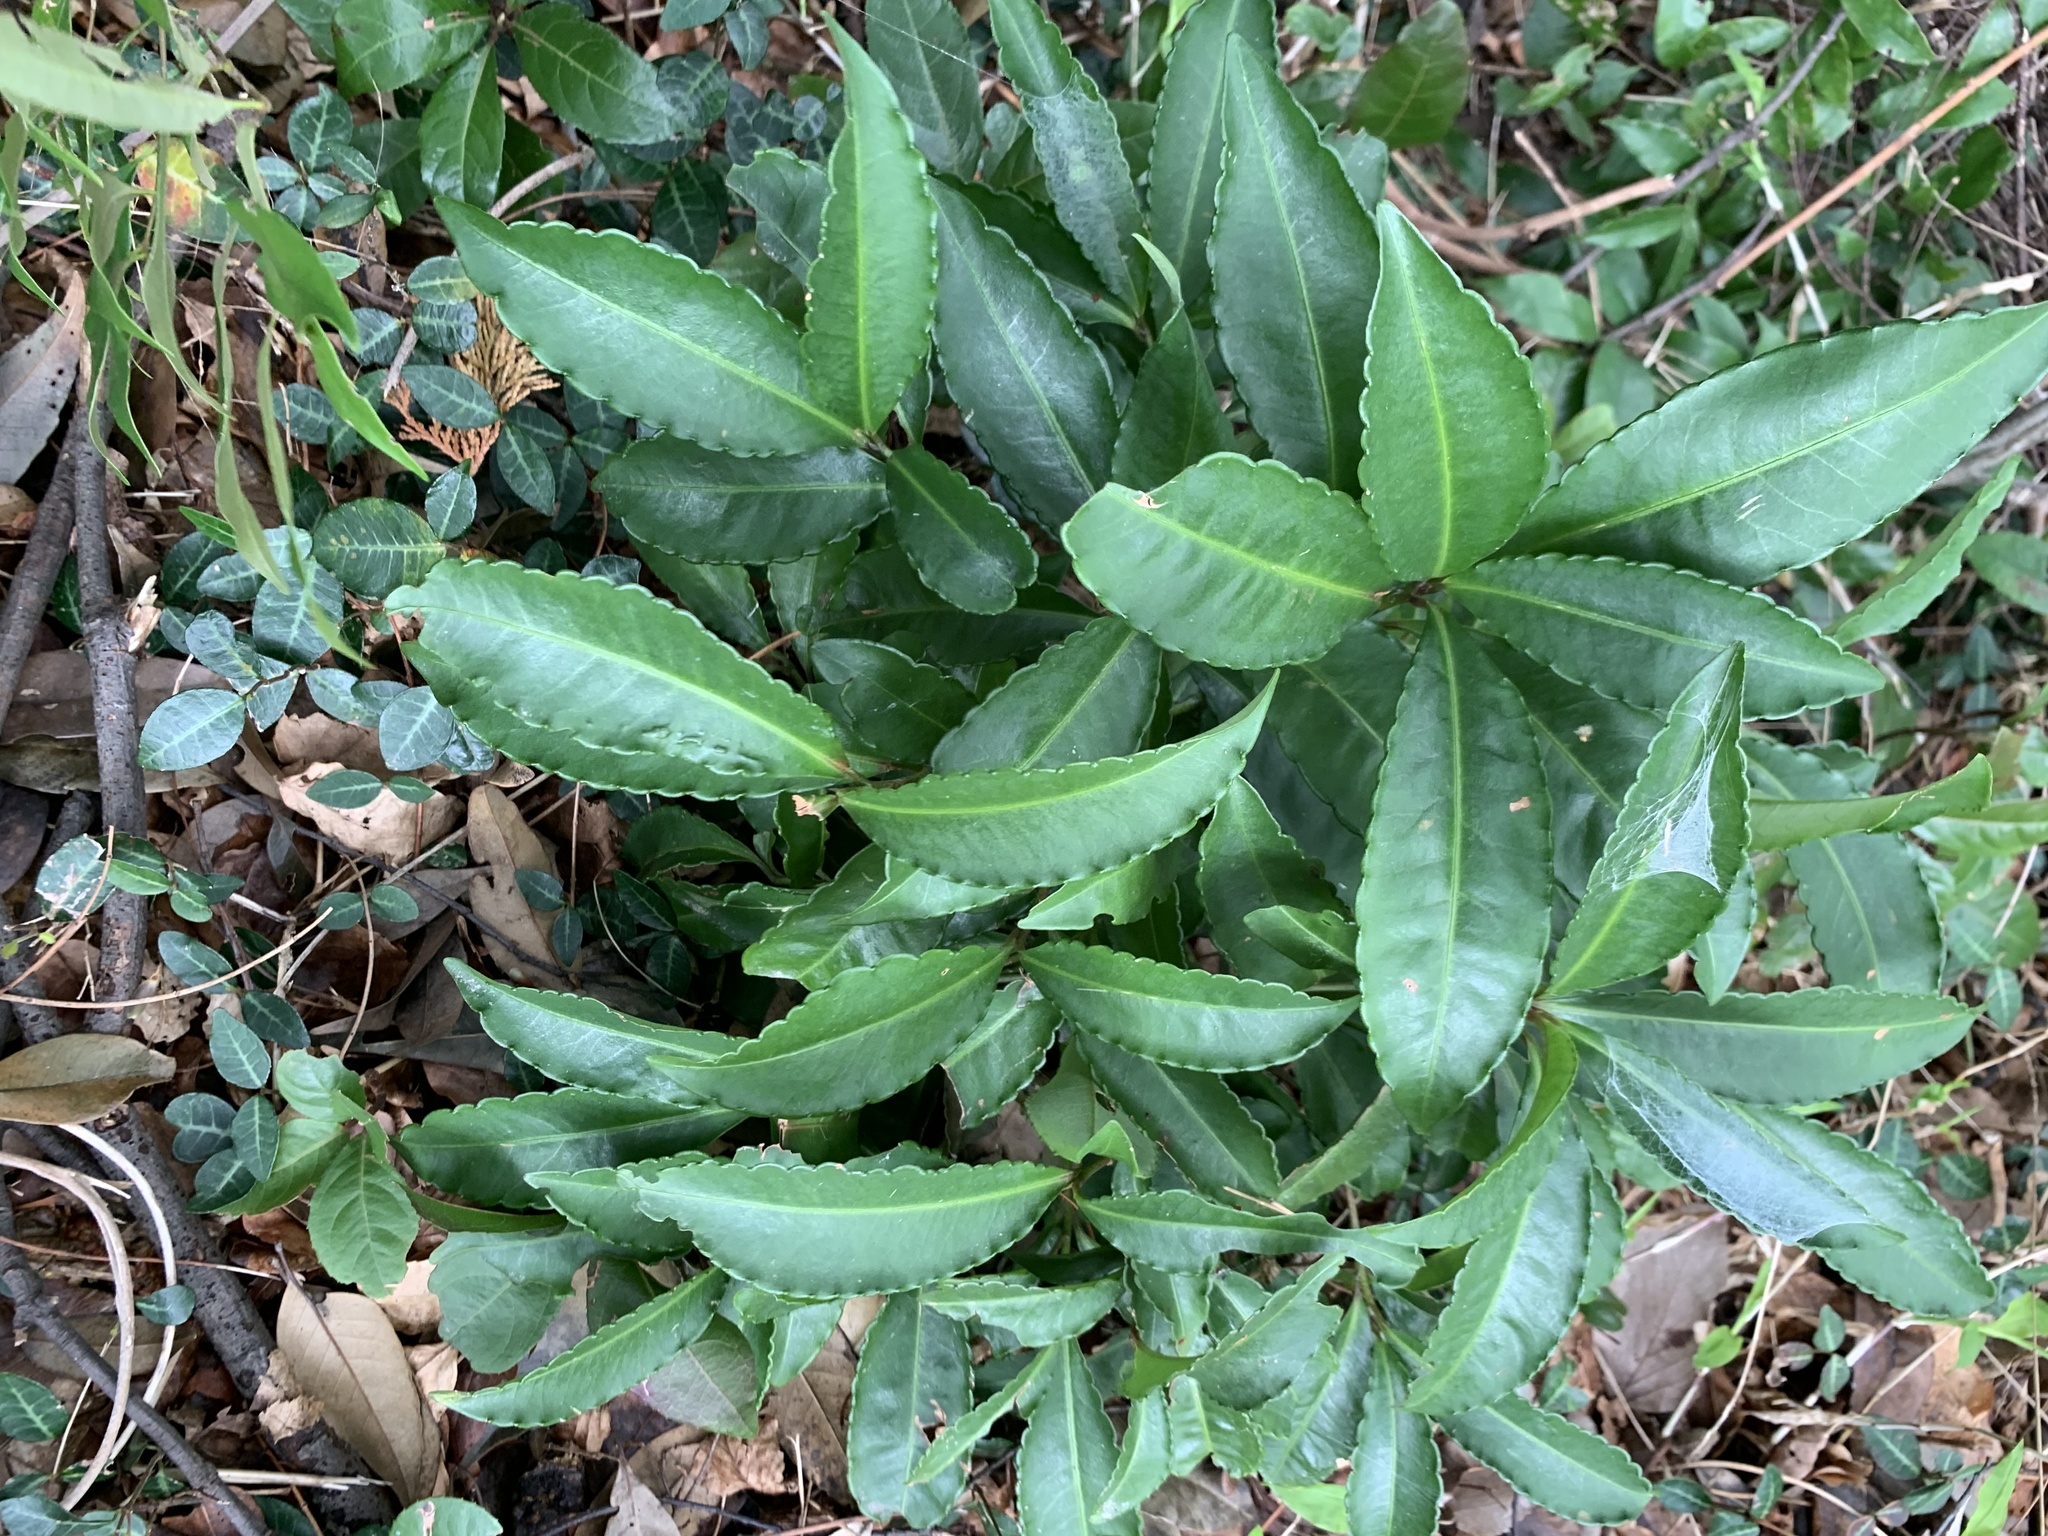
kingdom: Plantae
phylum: Tracheophyta
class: Magnoliopsida
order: Ericales
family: Primulaceae
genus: Ardisia
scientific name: Ardisia crenata
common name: Hen's eyes
